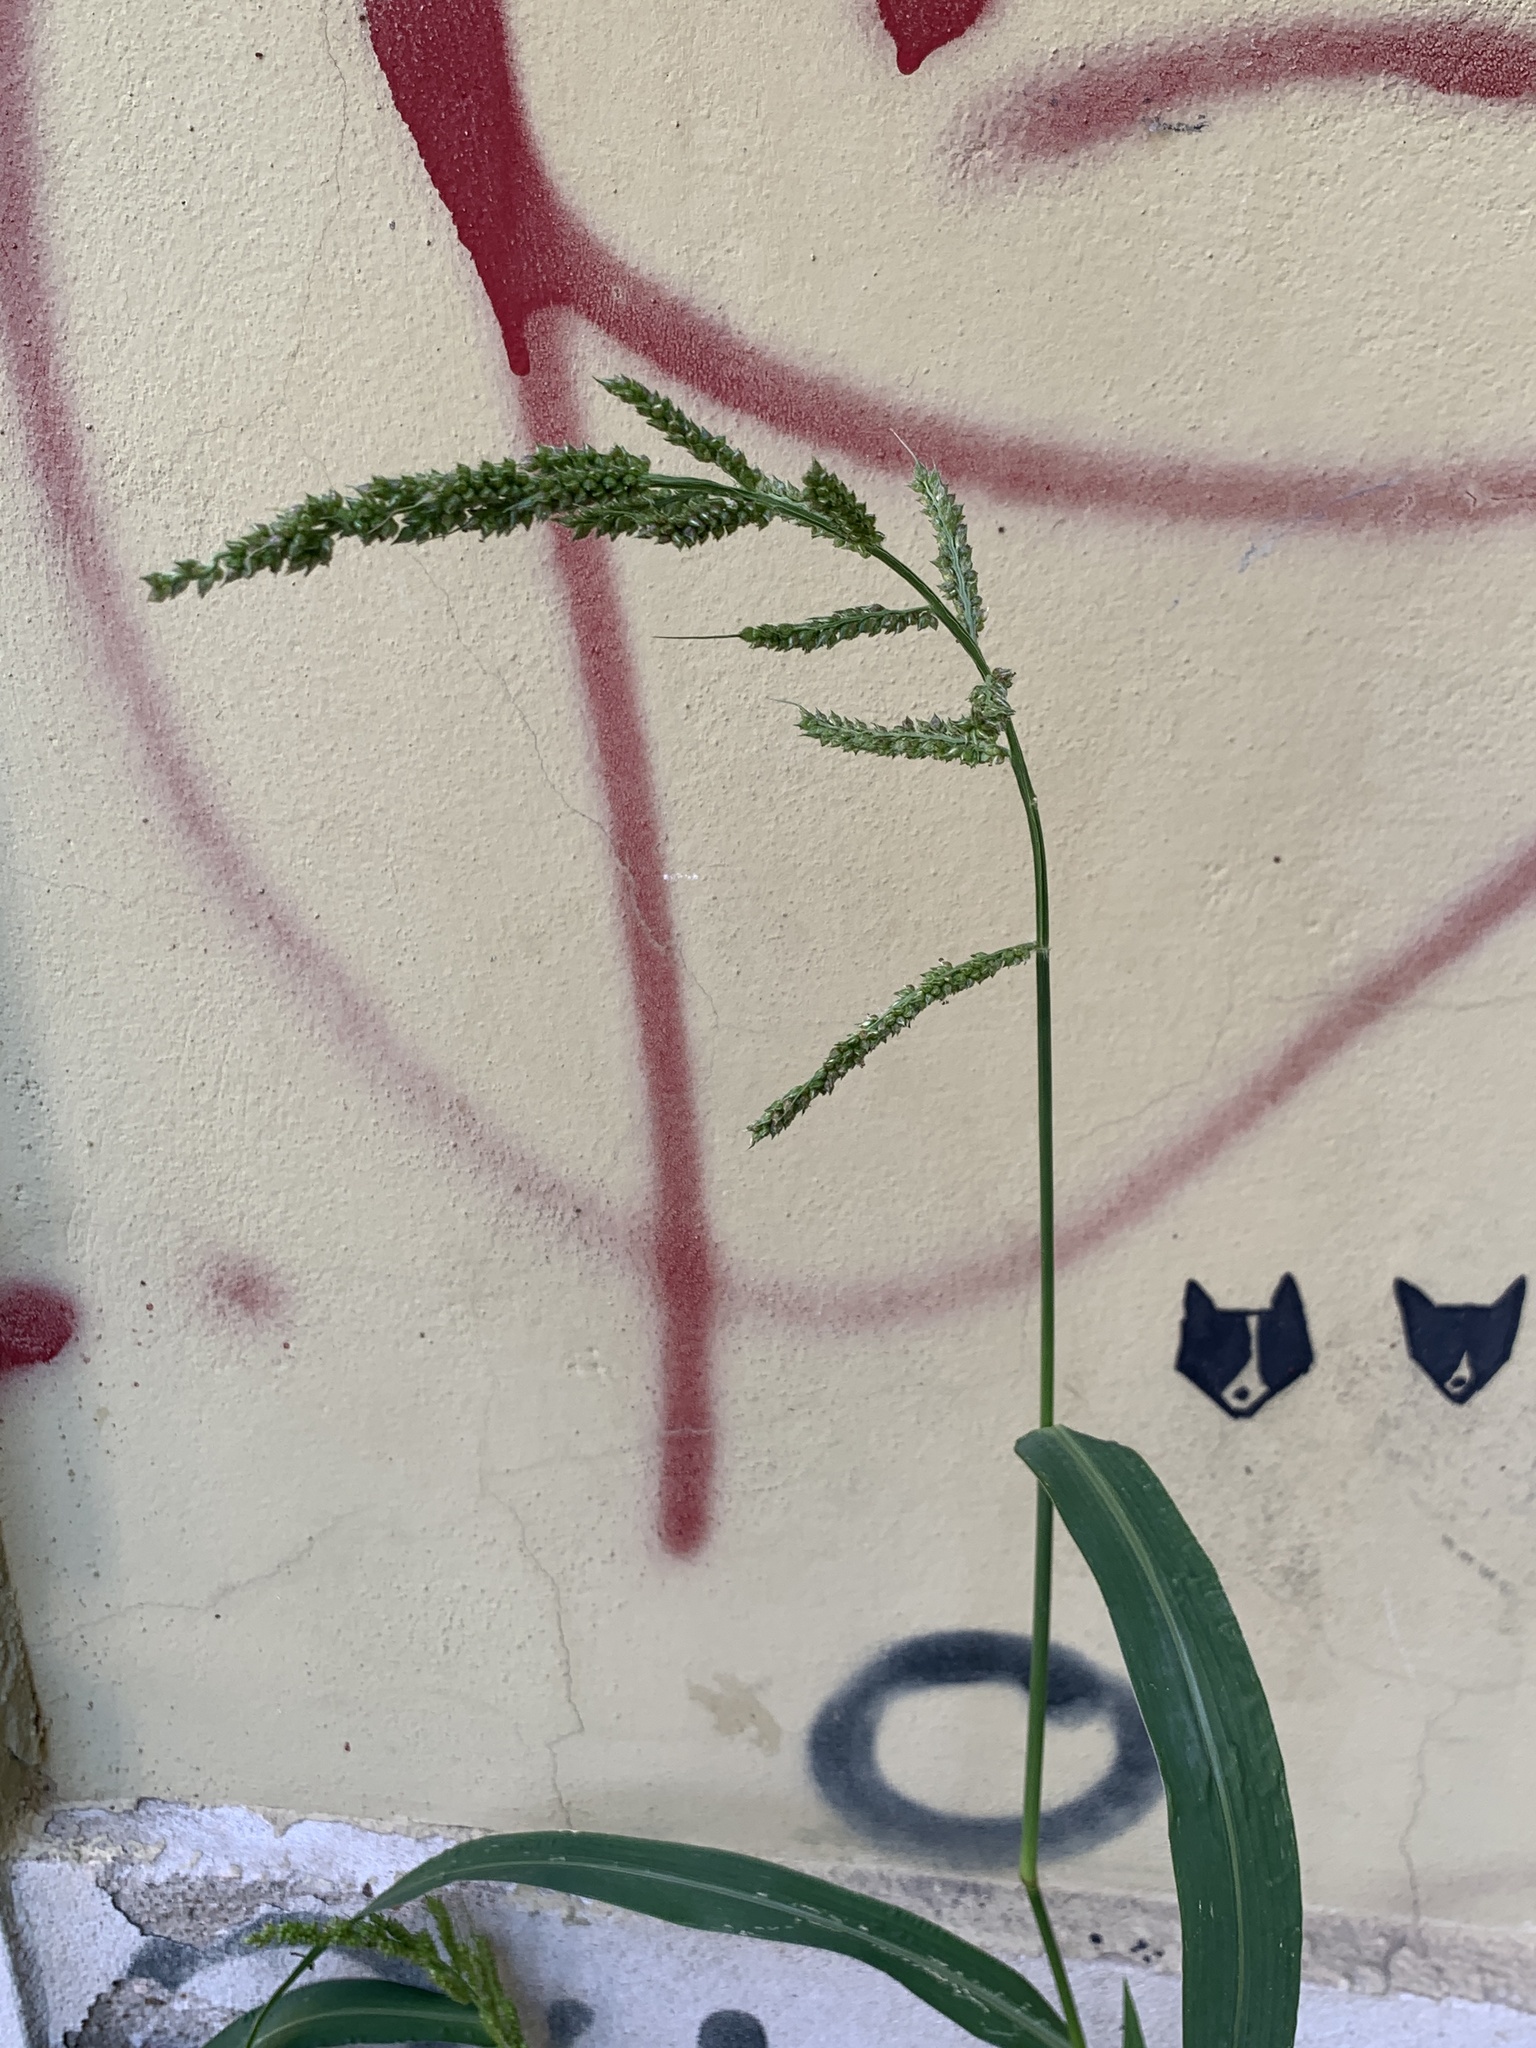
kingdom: Plantae
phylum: Tracheophyta
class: Liliopsida
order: Poales
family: Poaceae
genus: Echinochloa
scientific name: Echinochloa crus-galli
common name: Cockspur
